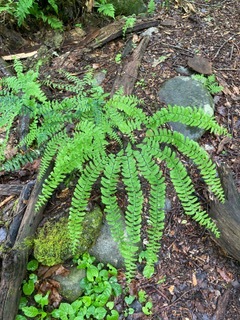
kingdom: Plantae
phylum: Tracheophyta
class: Polypodiopsida
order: Polypodiales
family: Pteridaceae
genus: Adiantum
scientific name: Adiantum pedatum
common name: Five-finger fern
